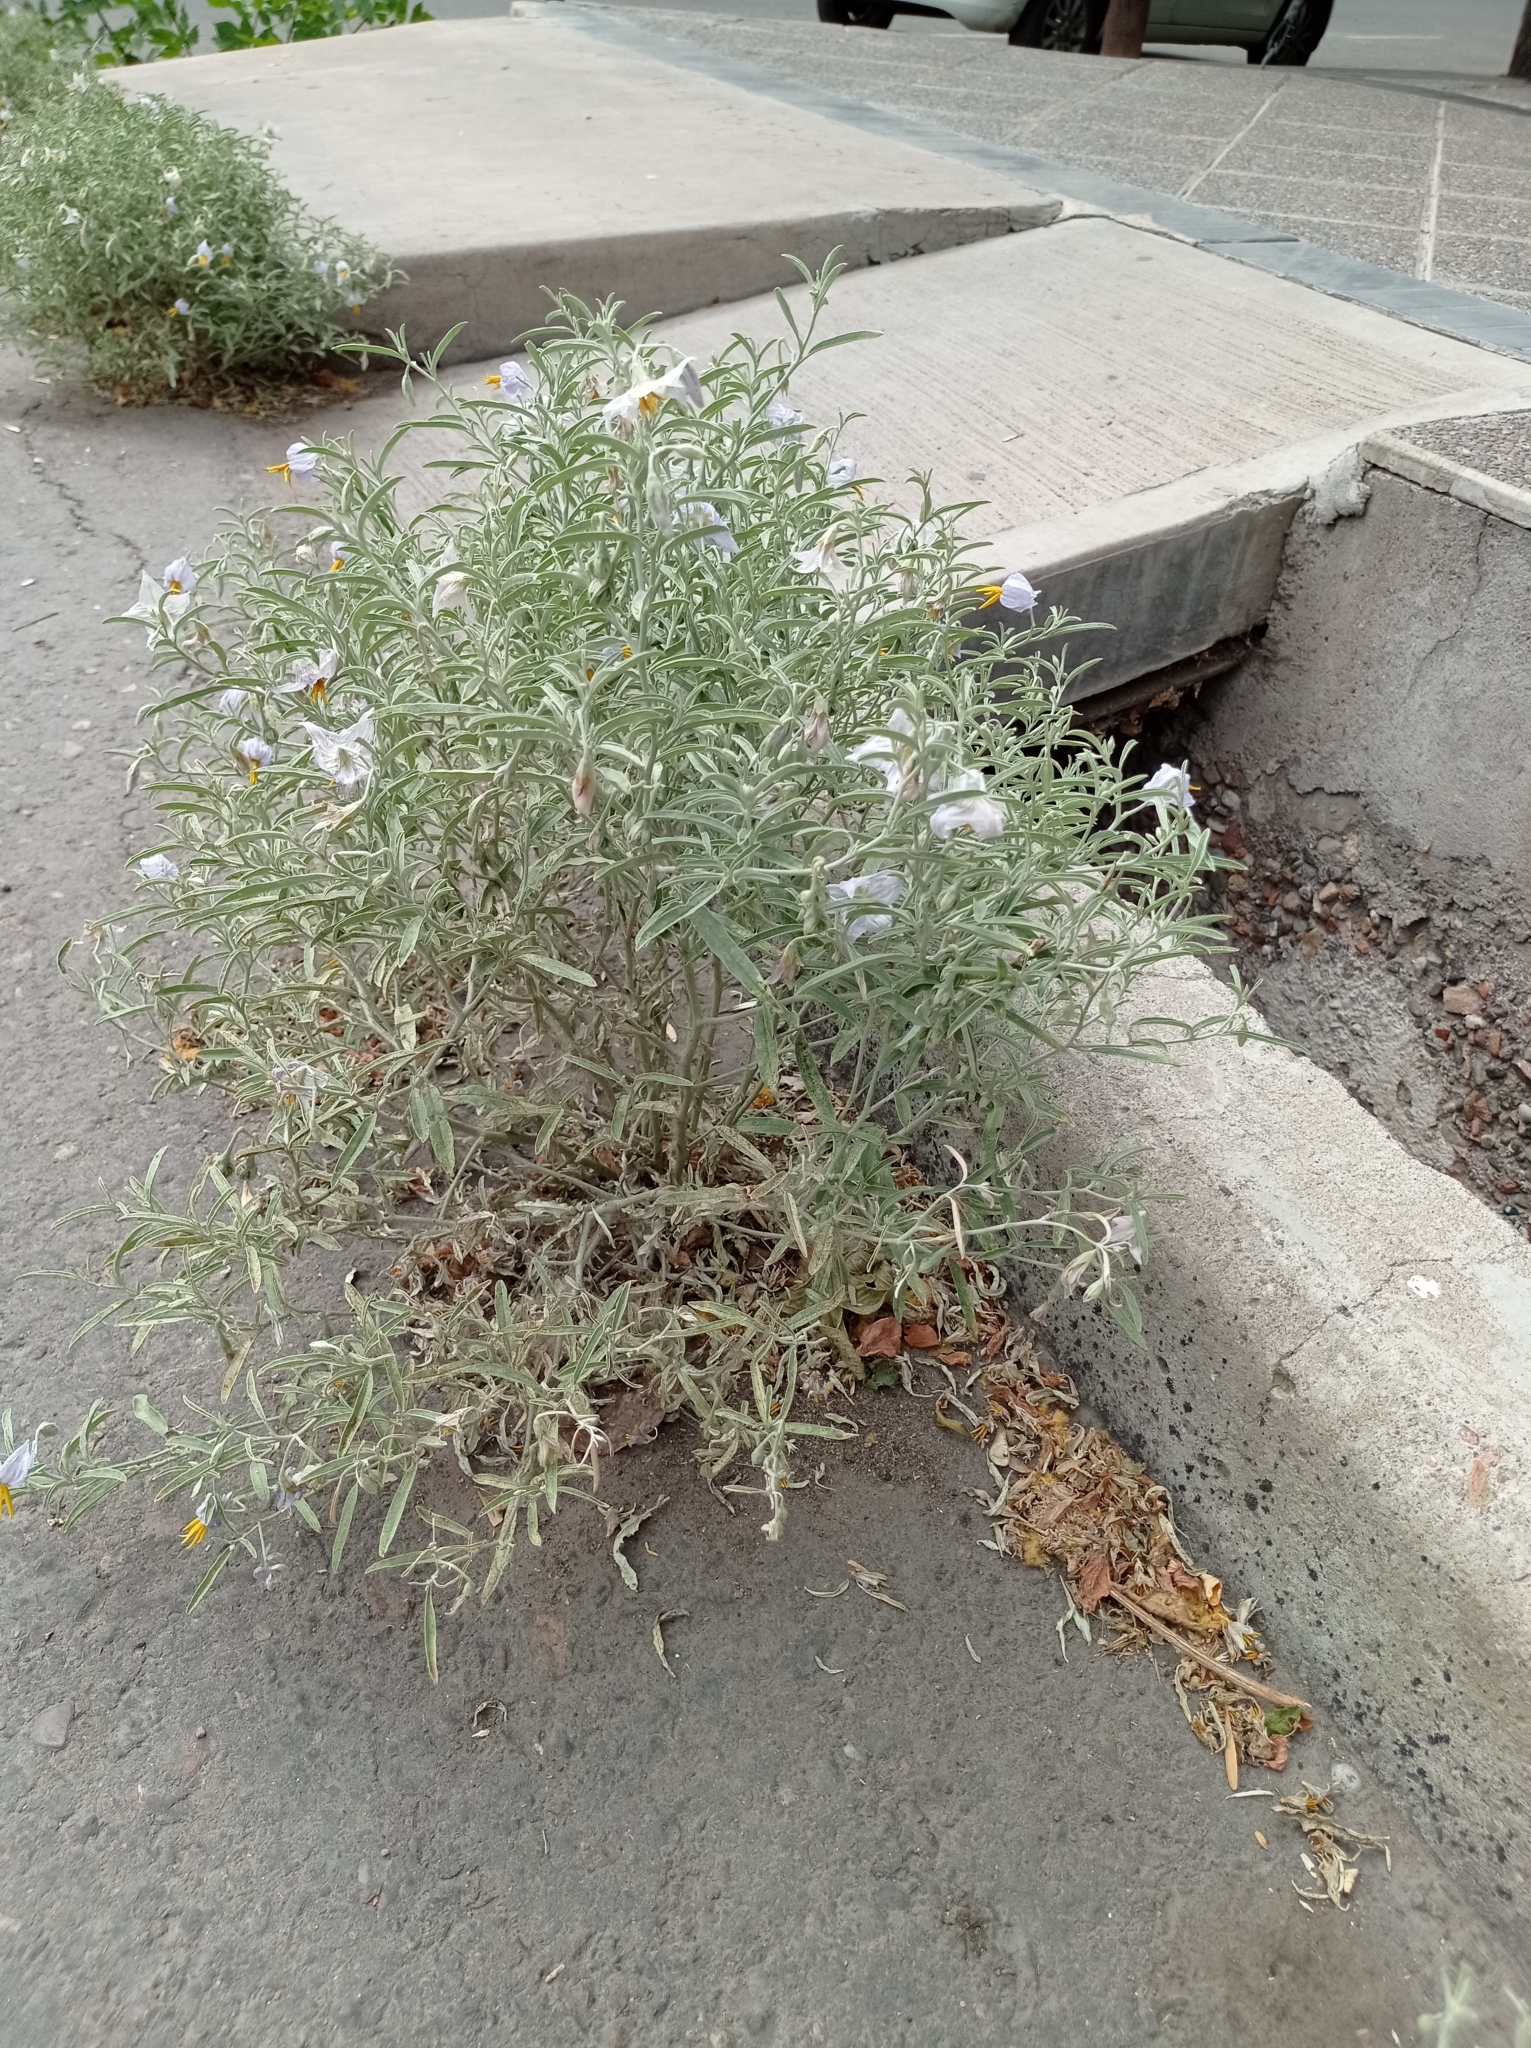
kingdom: Plantae
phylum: Tracheophyta
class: Magnoliopsida
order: Solanales
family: Solanaceae
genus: Solanum
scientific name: Solanum elaeagnifolium
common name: Silverleaf nightshade
